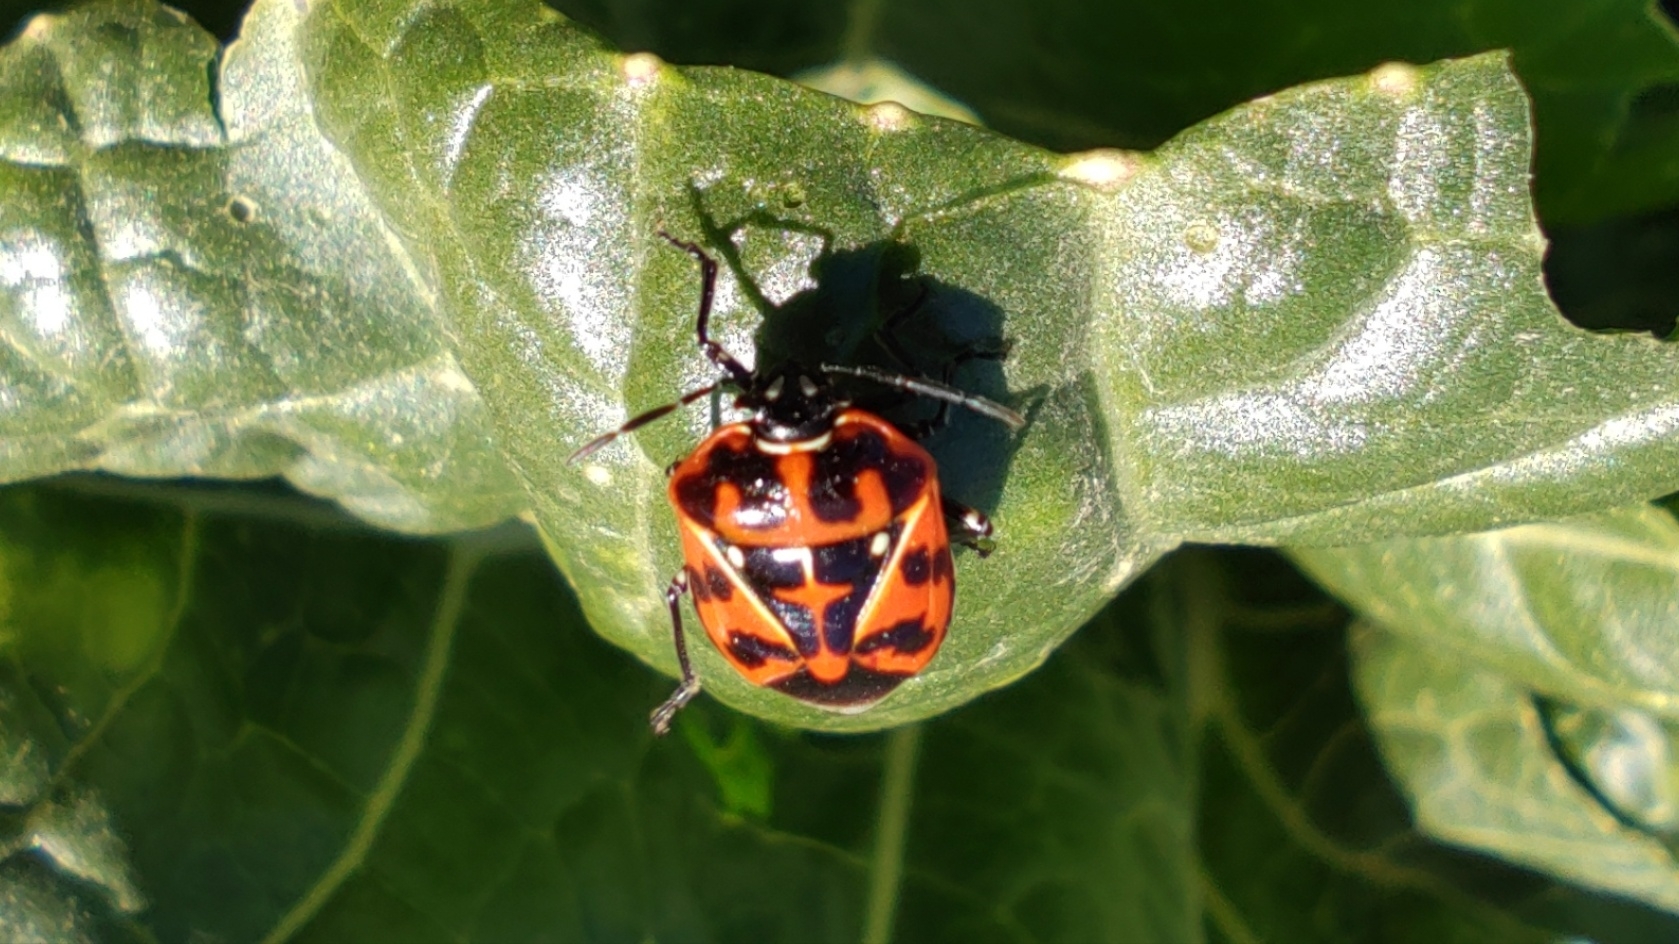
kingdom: Animalia
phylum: Arthropoda
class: Insecta
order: Hemiptera
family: Pentatomidae
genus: Murgantia
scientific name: Murgantia histrionica
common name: Harlequin bug
